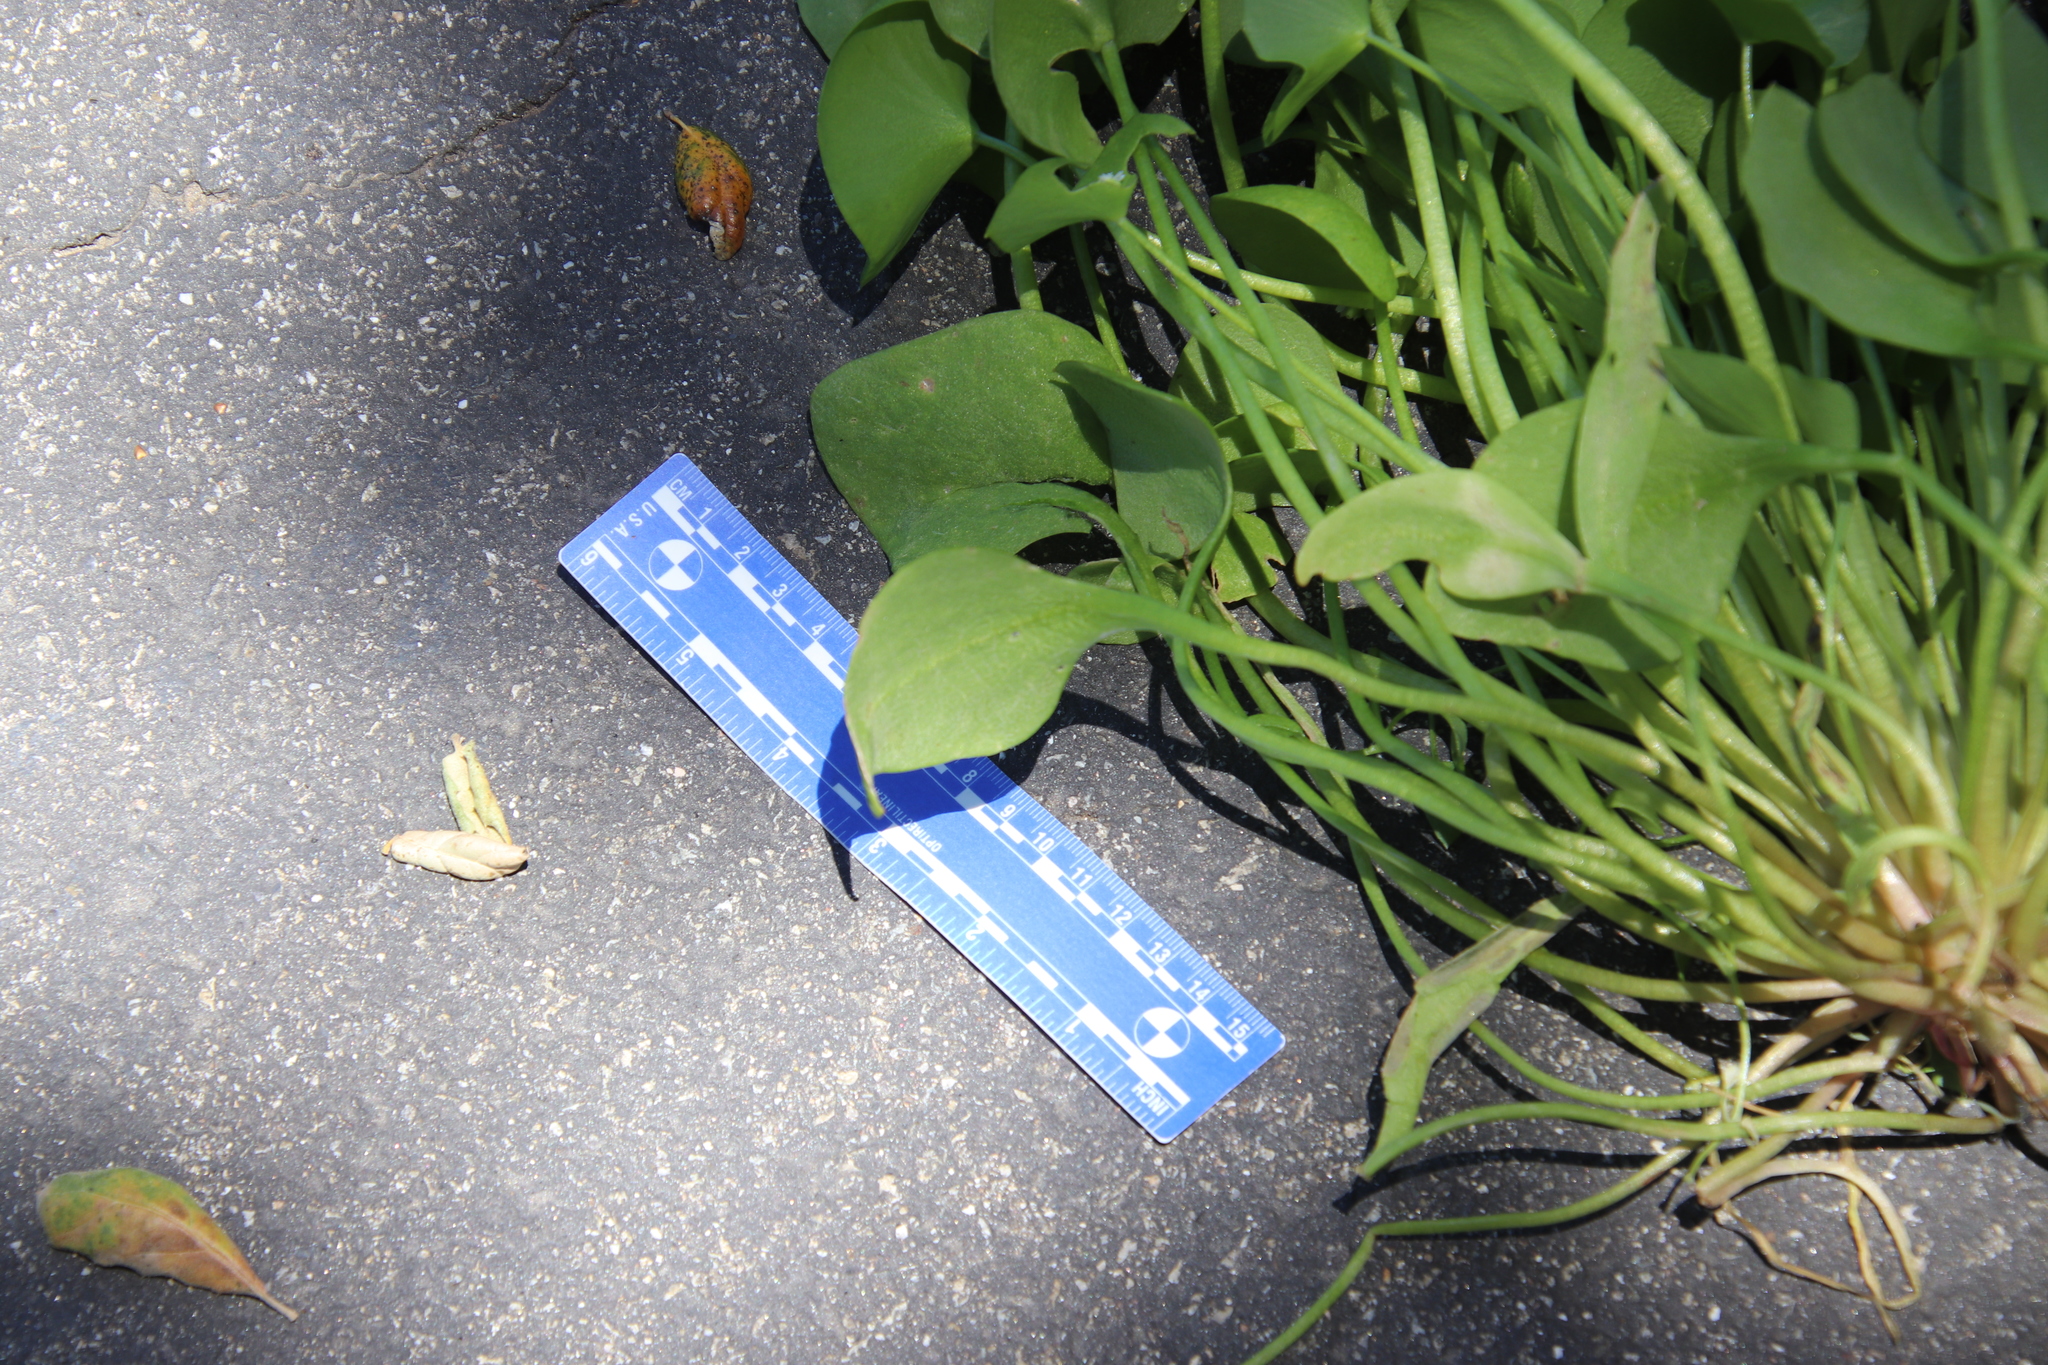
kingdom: Plantae
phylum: Tracheophyta
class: Magnoliopsida
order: Caryophyllales
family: Montiaceae
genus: Claytonia
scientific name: Claytonia perfoliata
